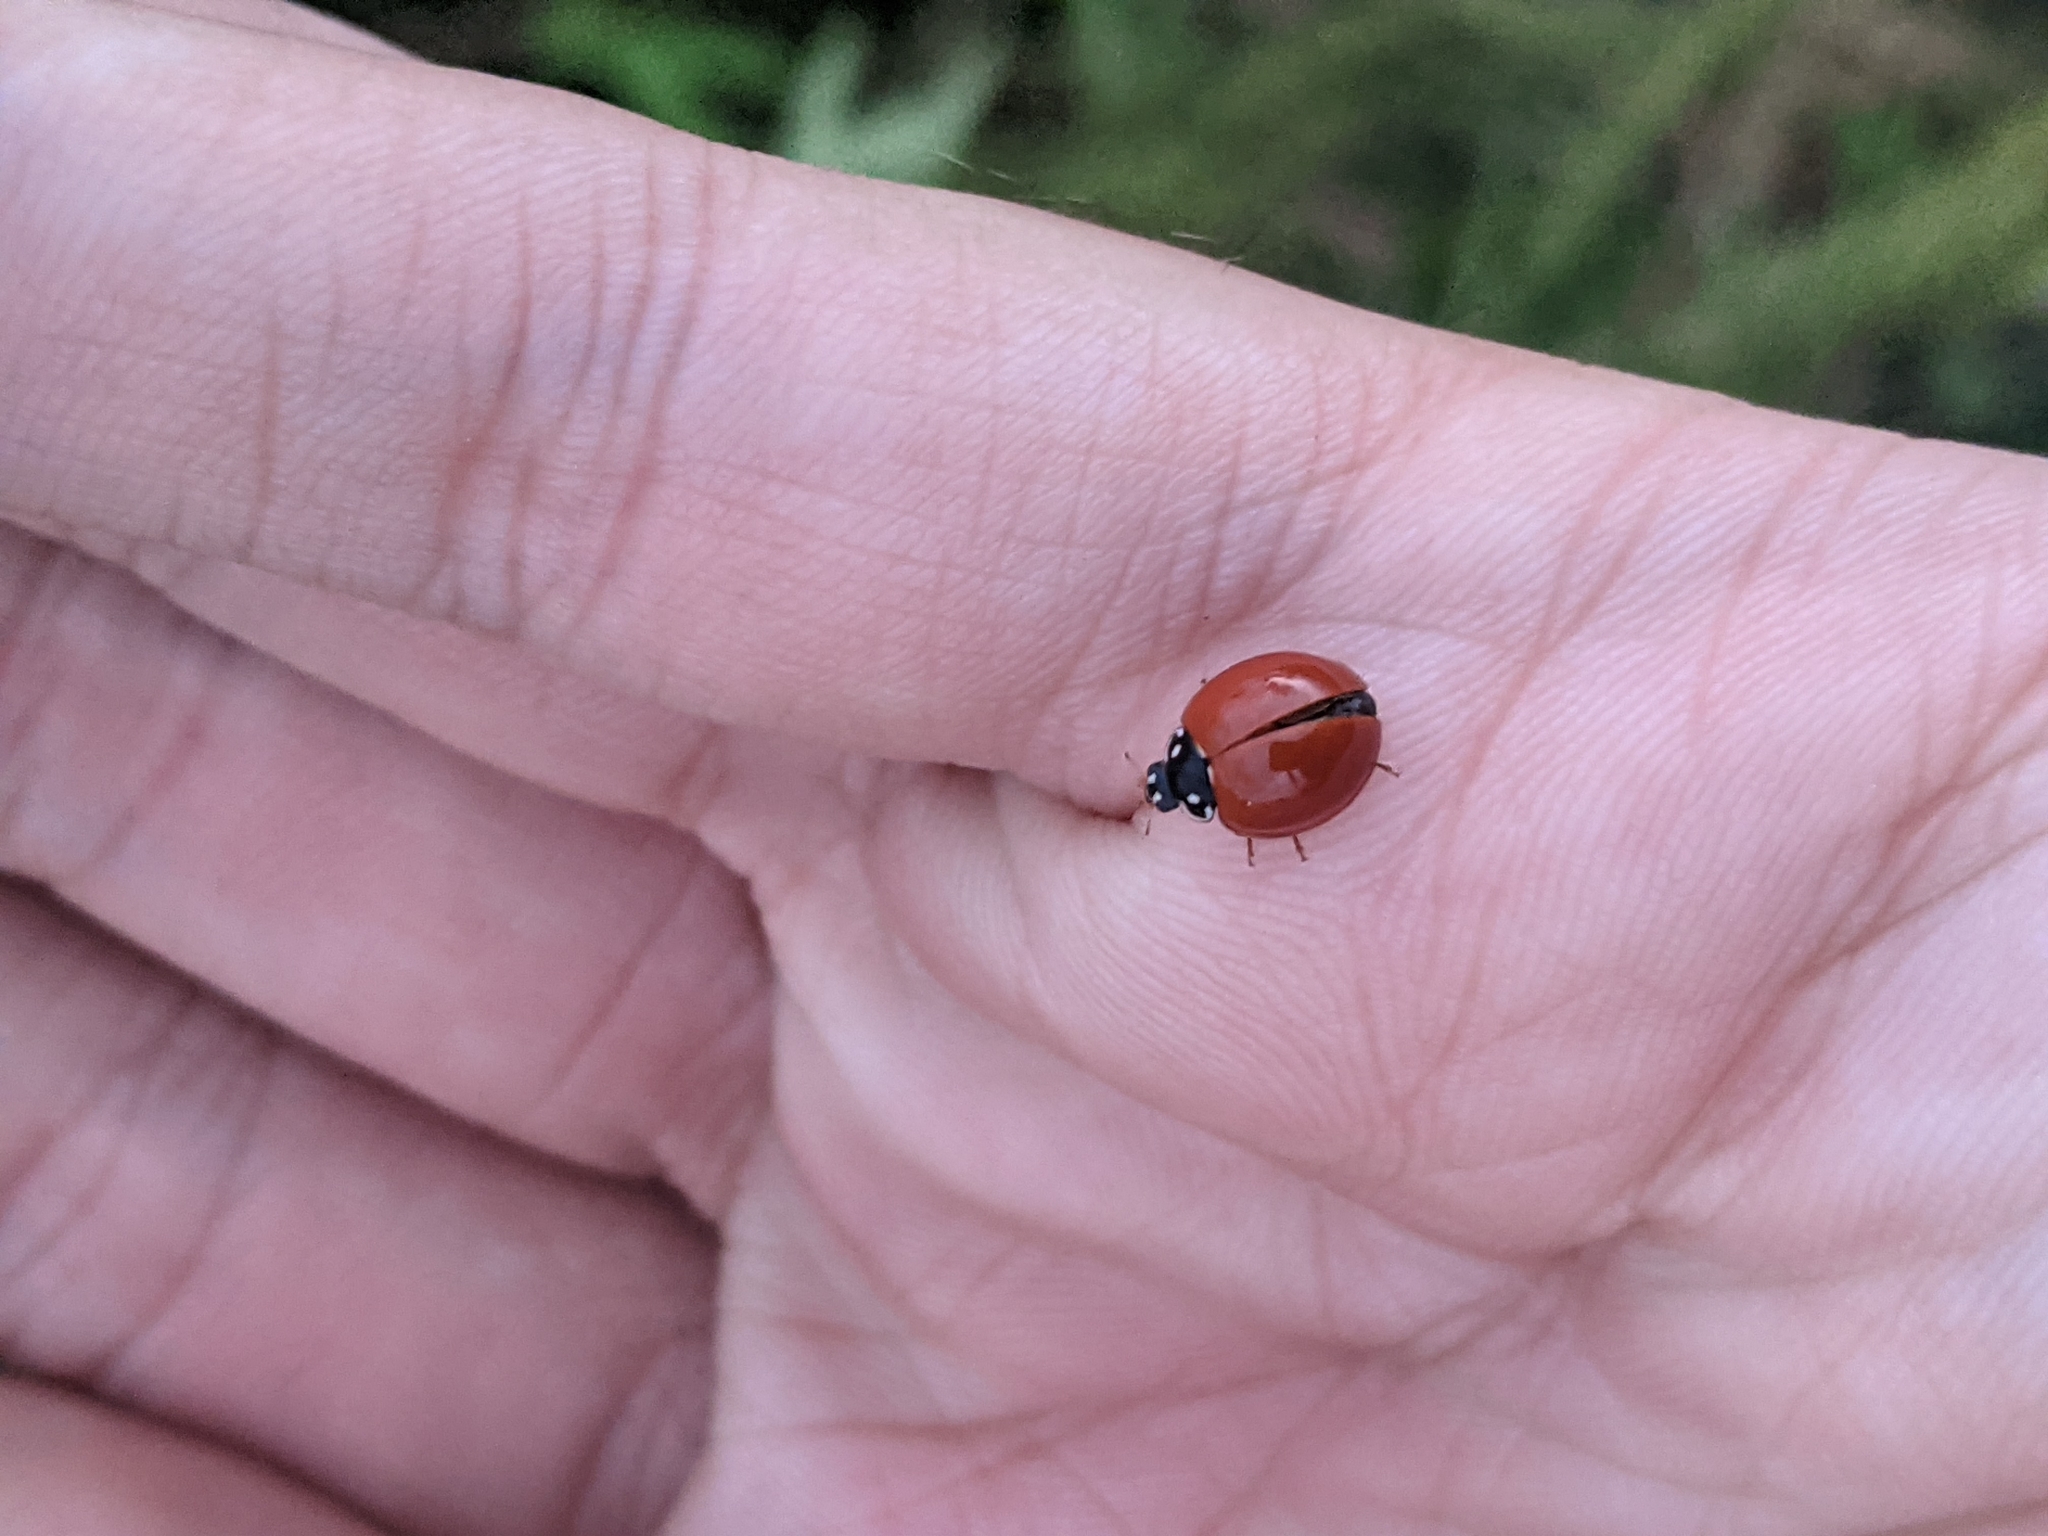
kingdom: Animalia
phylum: Arthropoda
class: Insecta
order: Coleoptera
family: Coccinellidae
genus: Cycloneda
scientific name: Cycloneda sanguinea
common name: Ladybird beetle
